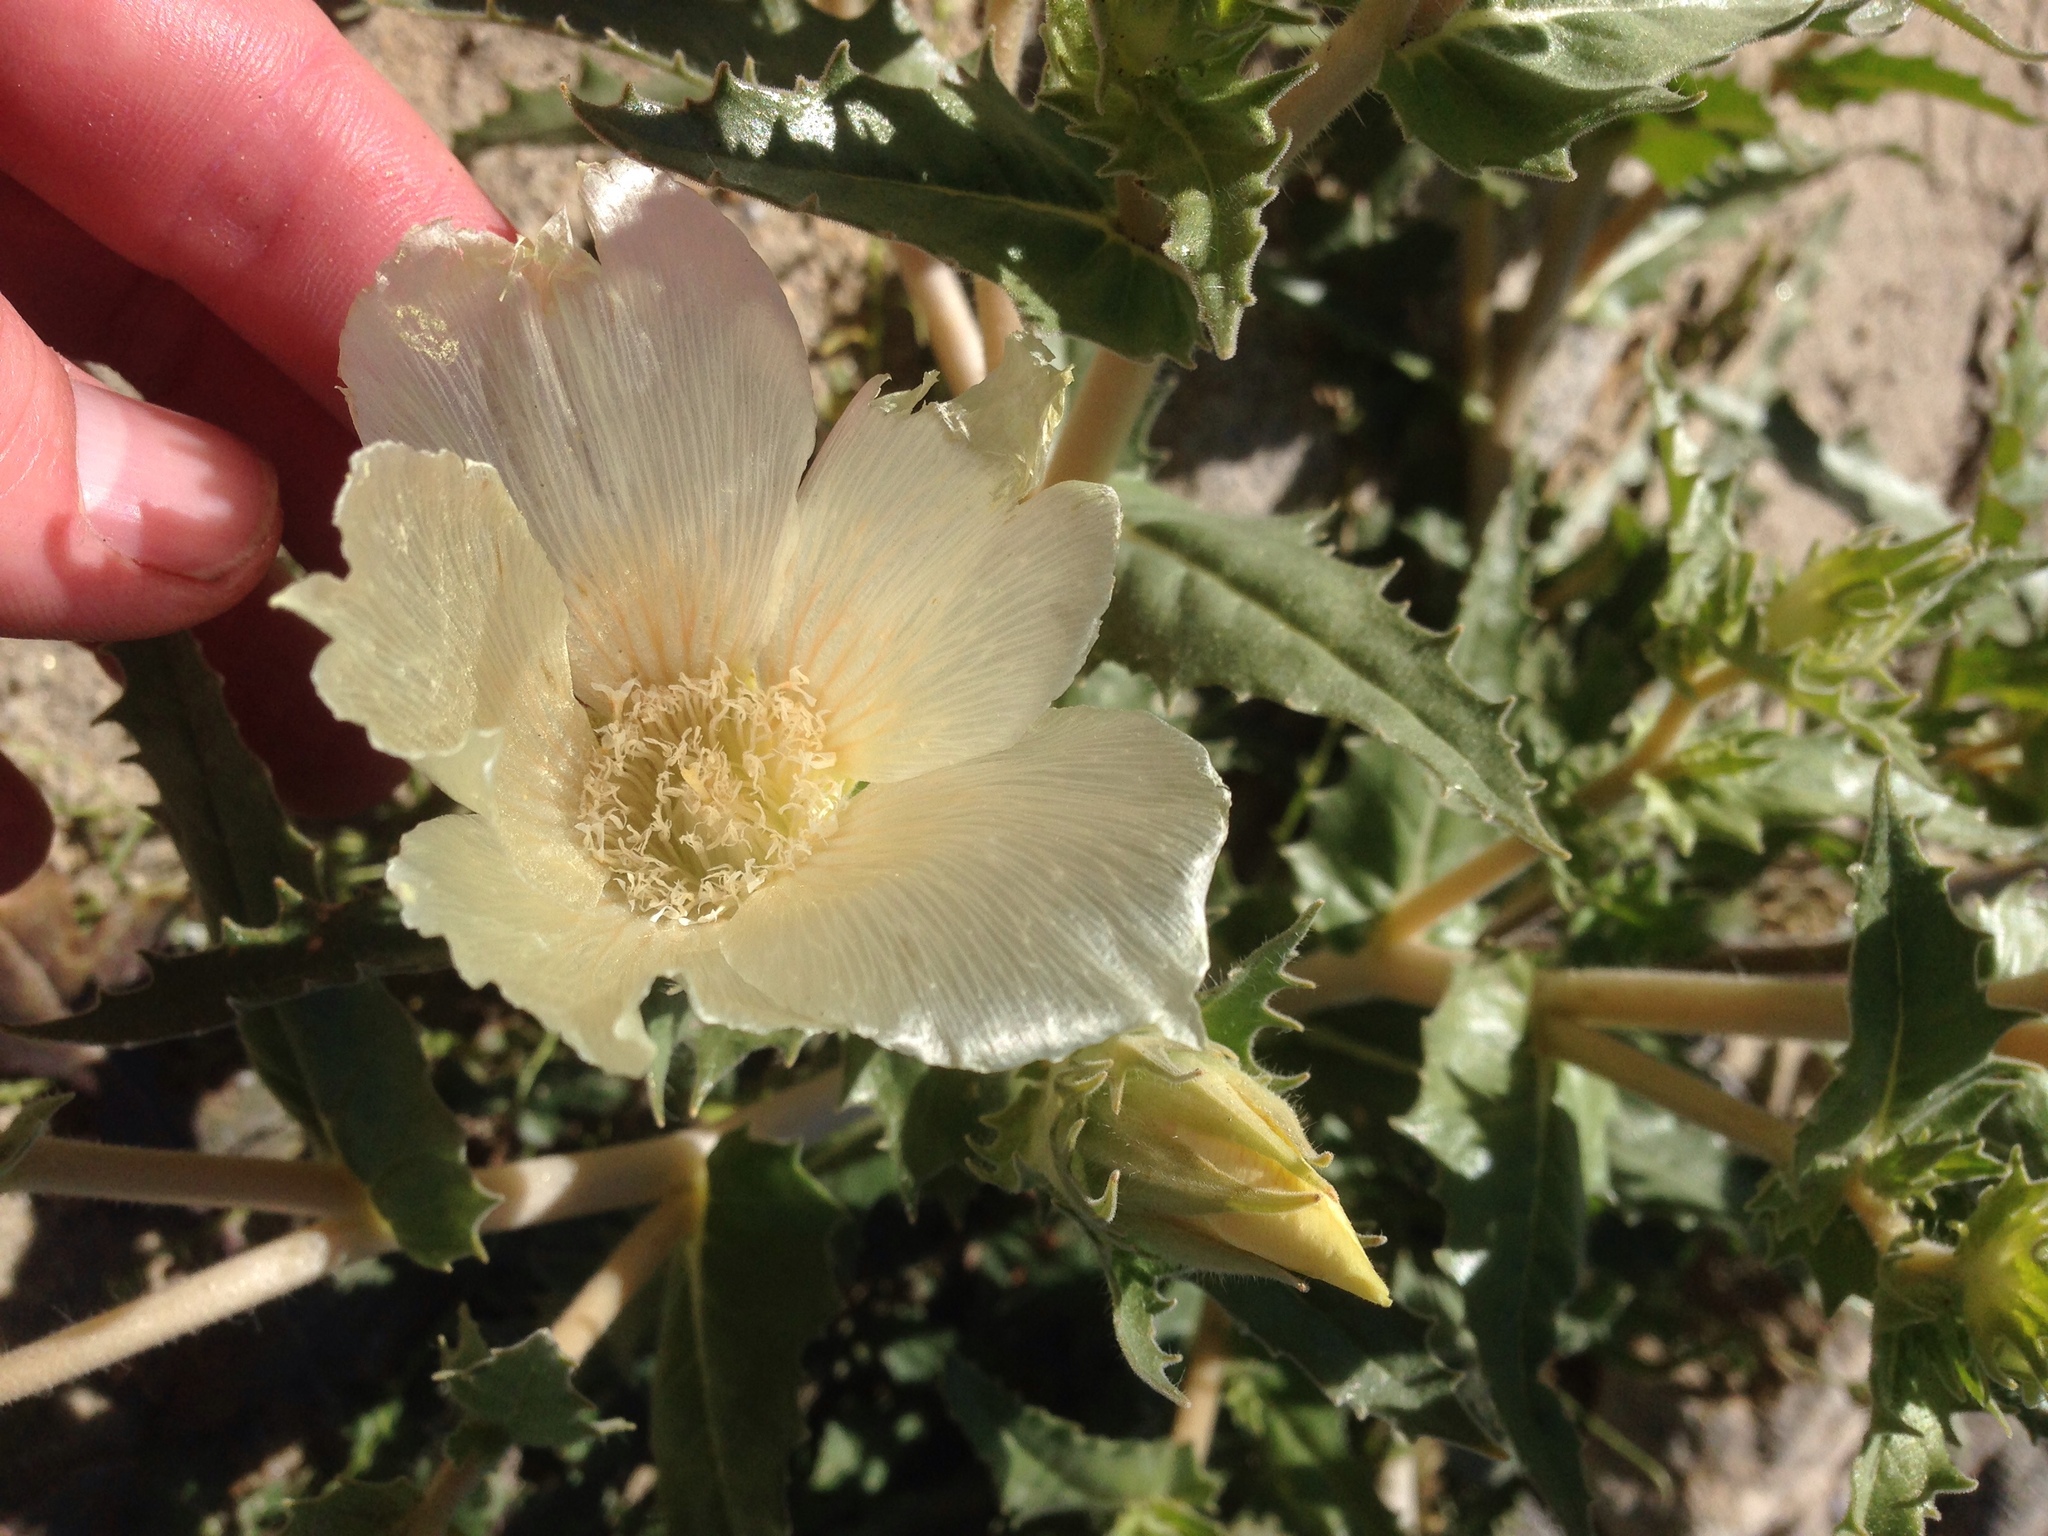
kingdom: Plantae
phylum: Tracheophyta
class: Magnoliopsida
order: Cornales
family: Loasaceae
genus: Mentzelia
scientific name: Mentzelia involucrata
